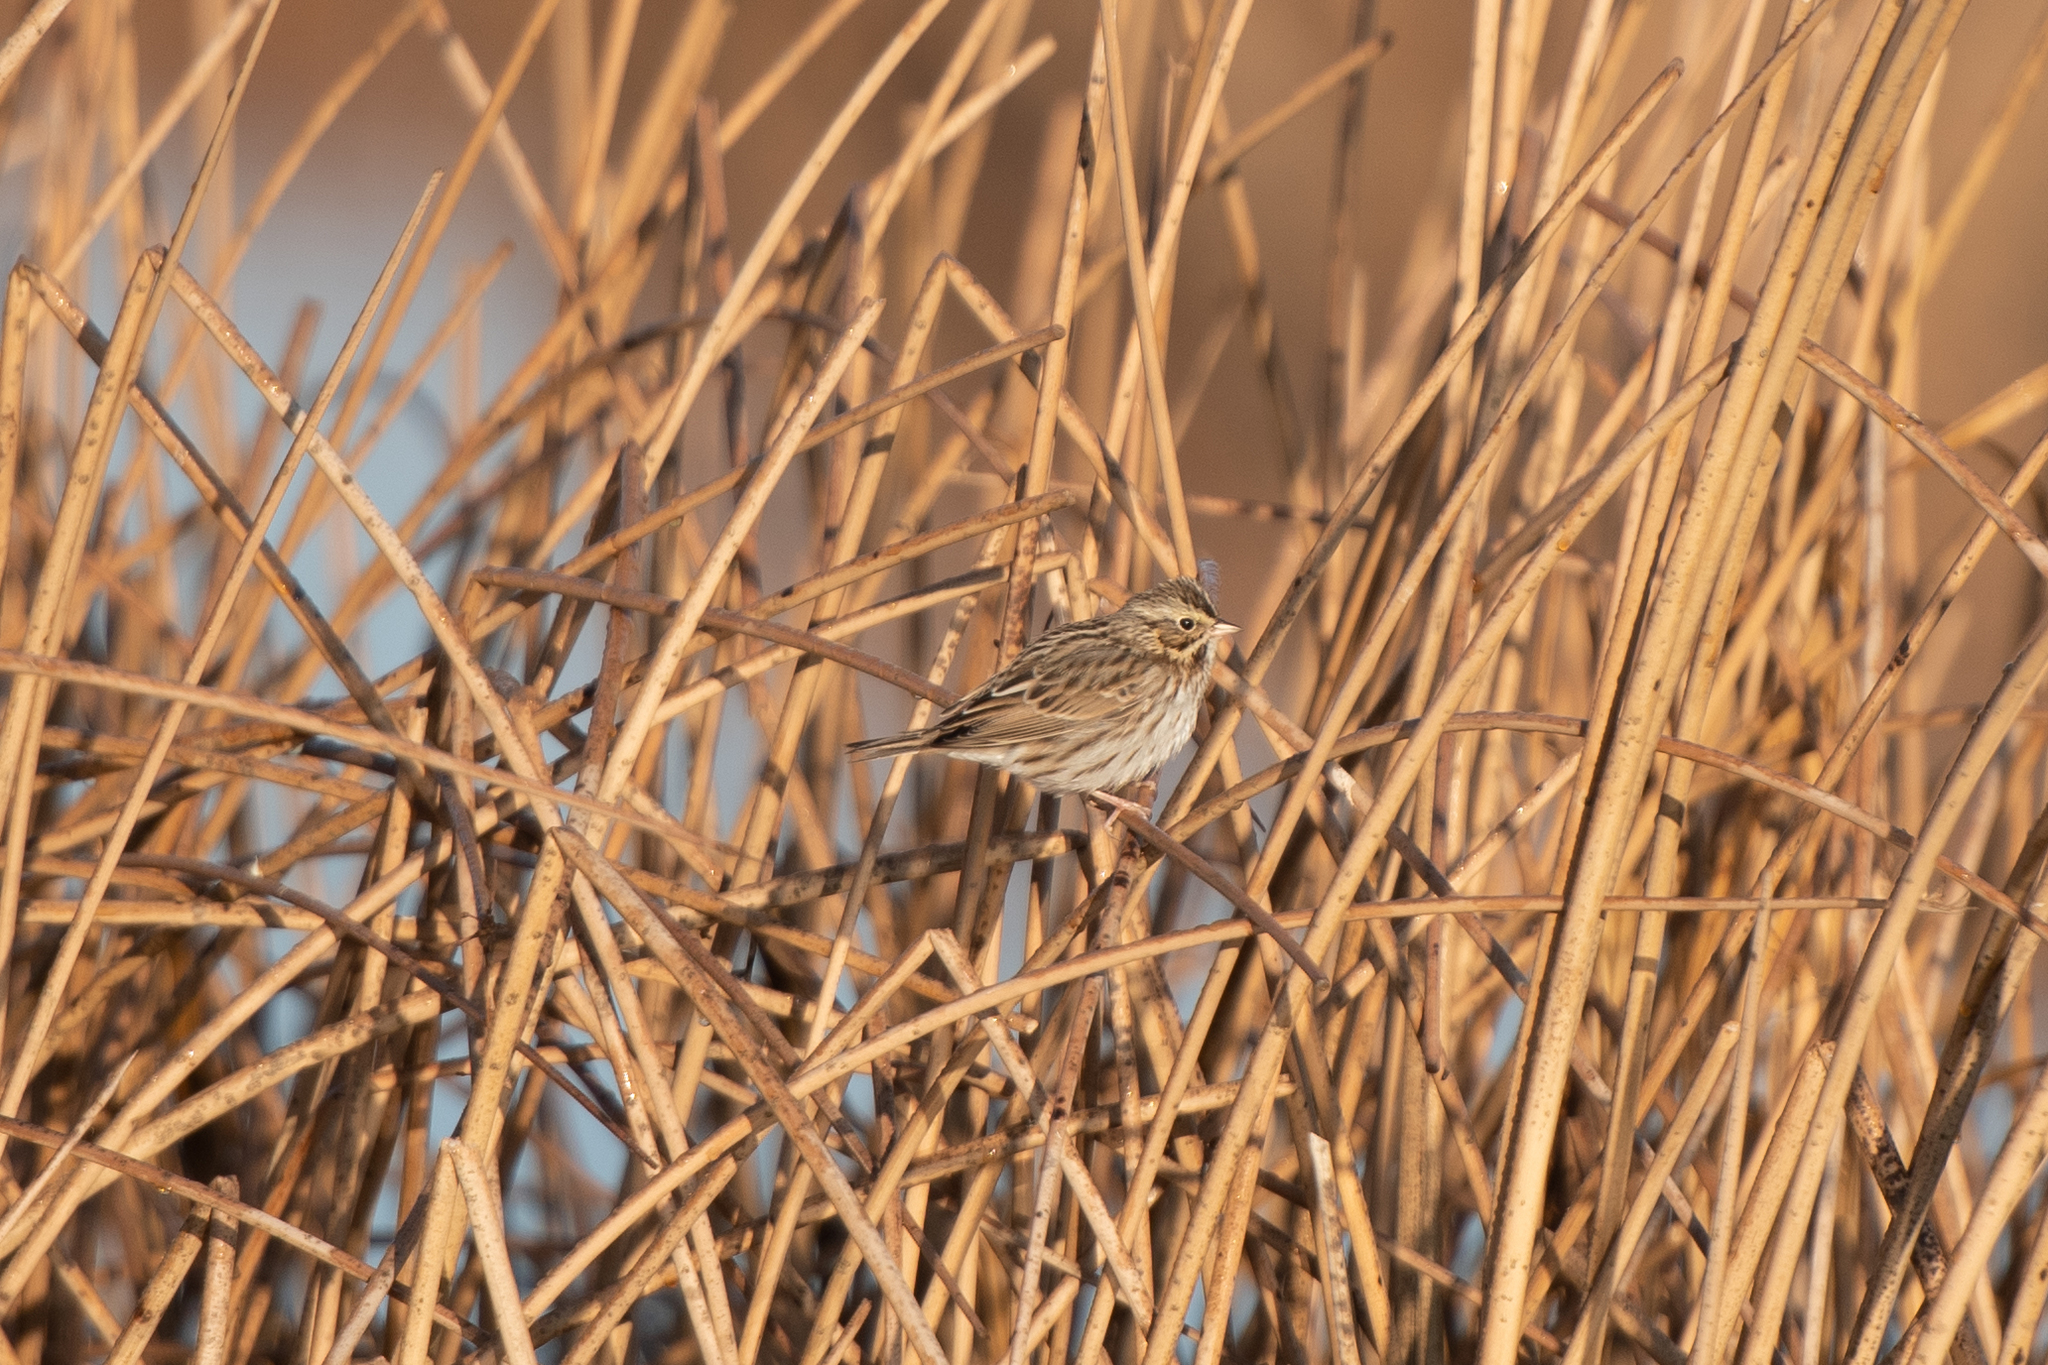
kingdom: Animalia
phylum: Chordata
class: Aves
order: Passeriformes
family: Passerellidae
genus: Passerculus
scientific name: Passerculus sandwichensis
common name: Savannah sparrow
